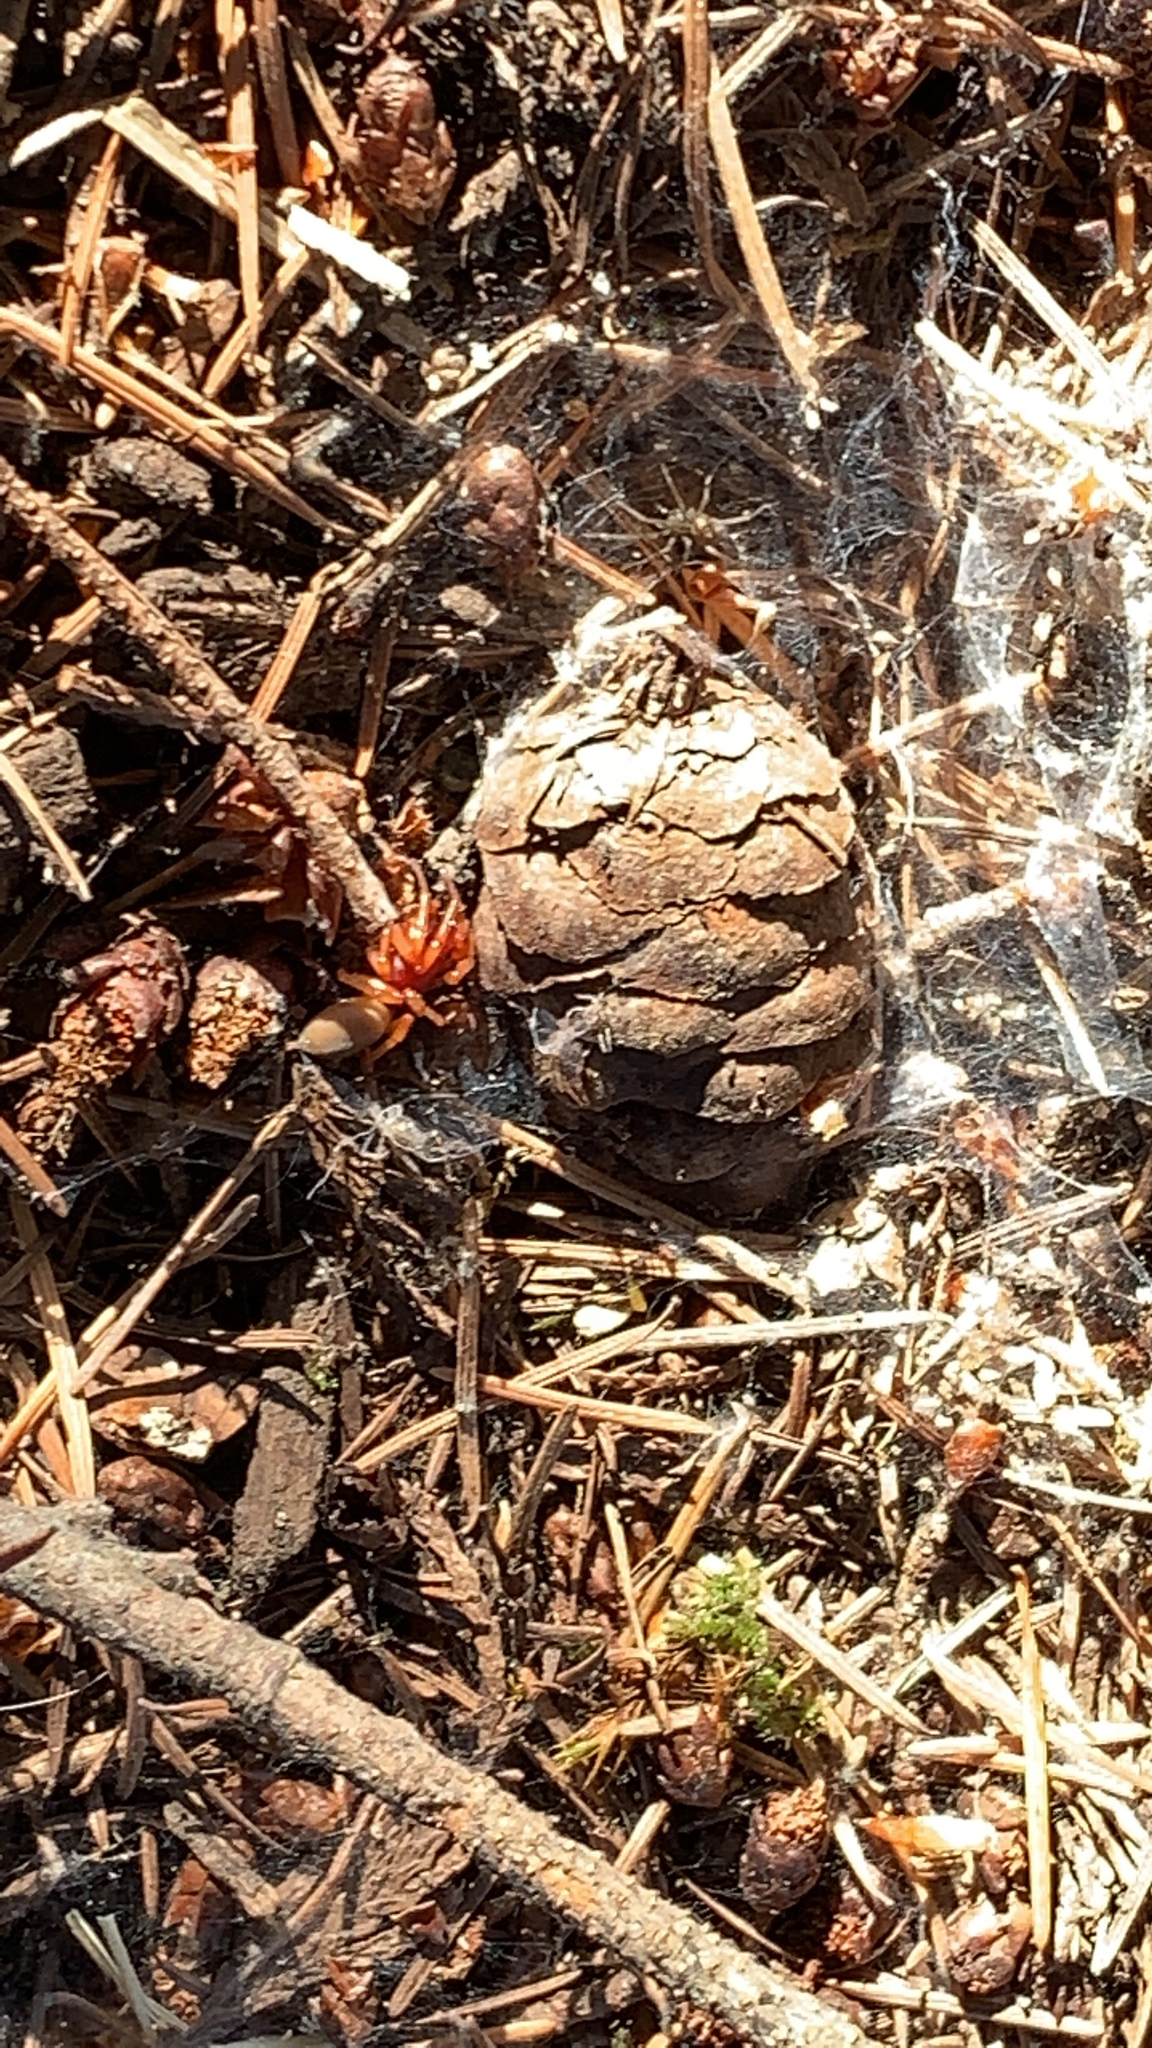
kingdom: Animalia
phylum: Arthropoda
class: Arachnida
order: Araneae
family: Dysderidae
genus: Dysdera
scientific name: Dysdera crocata
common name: Woodlouse spider
